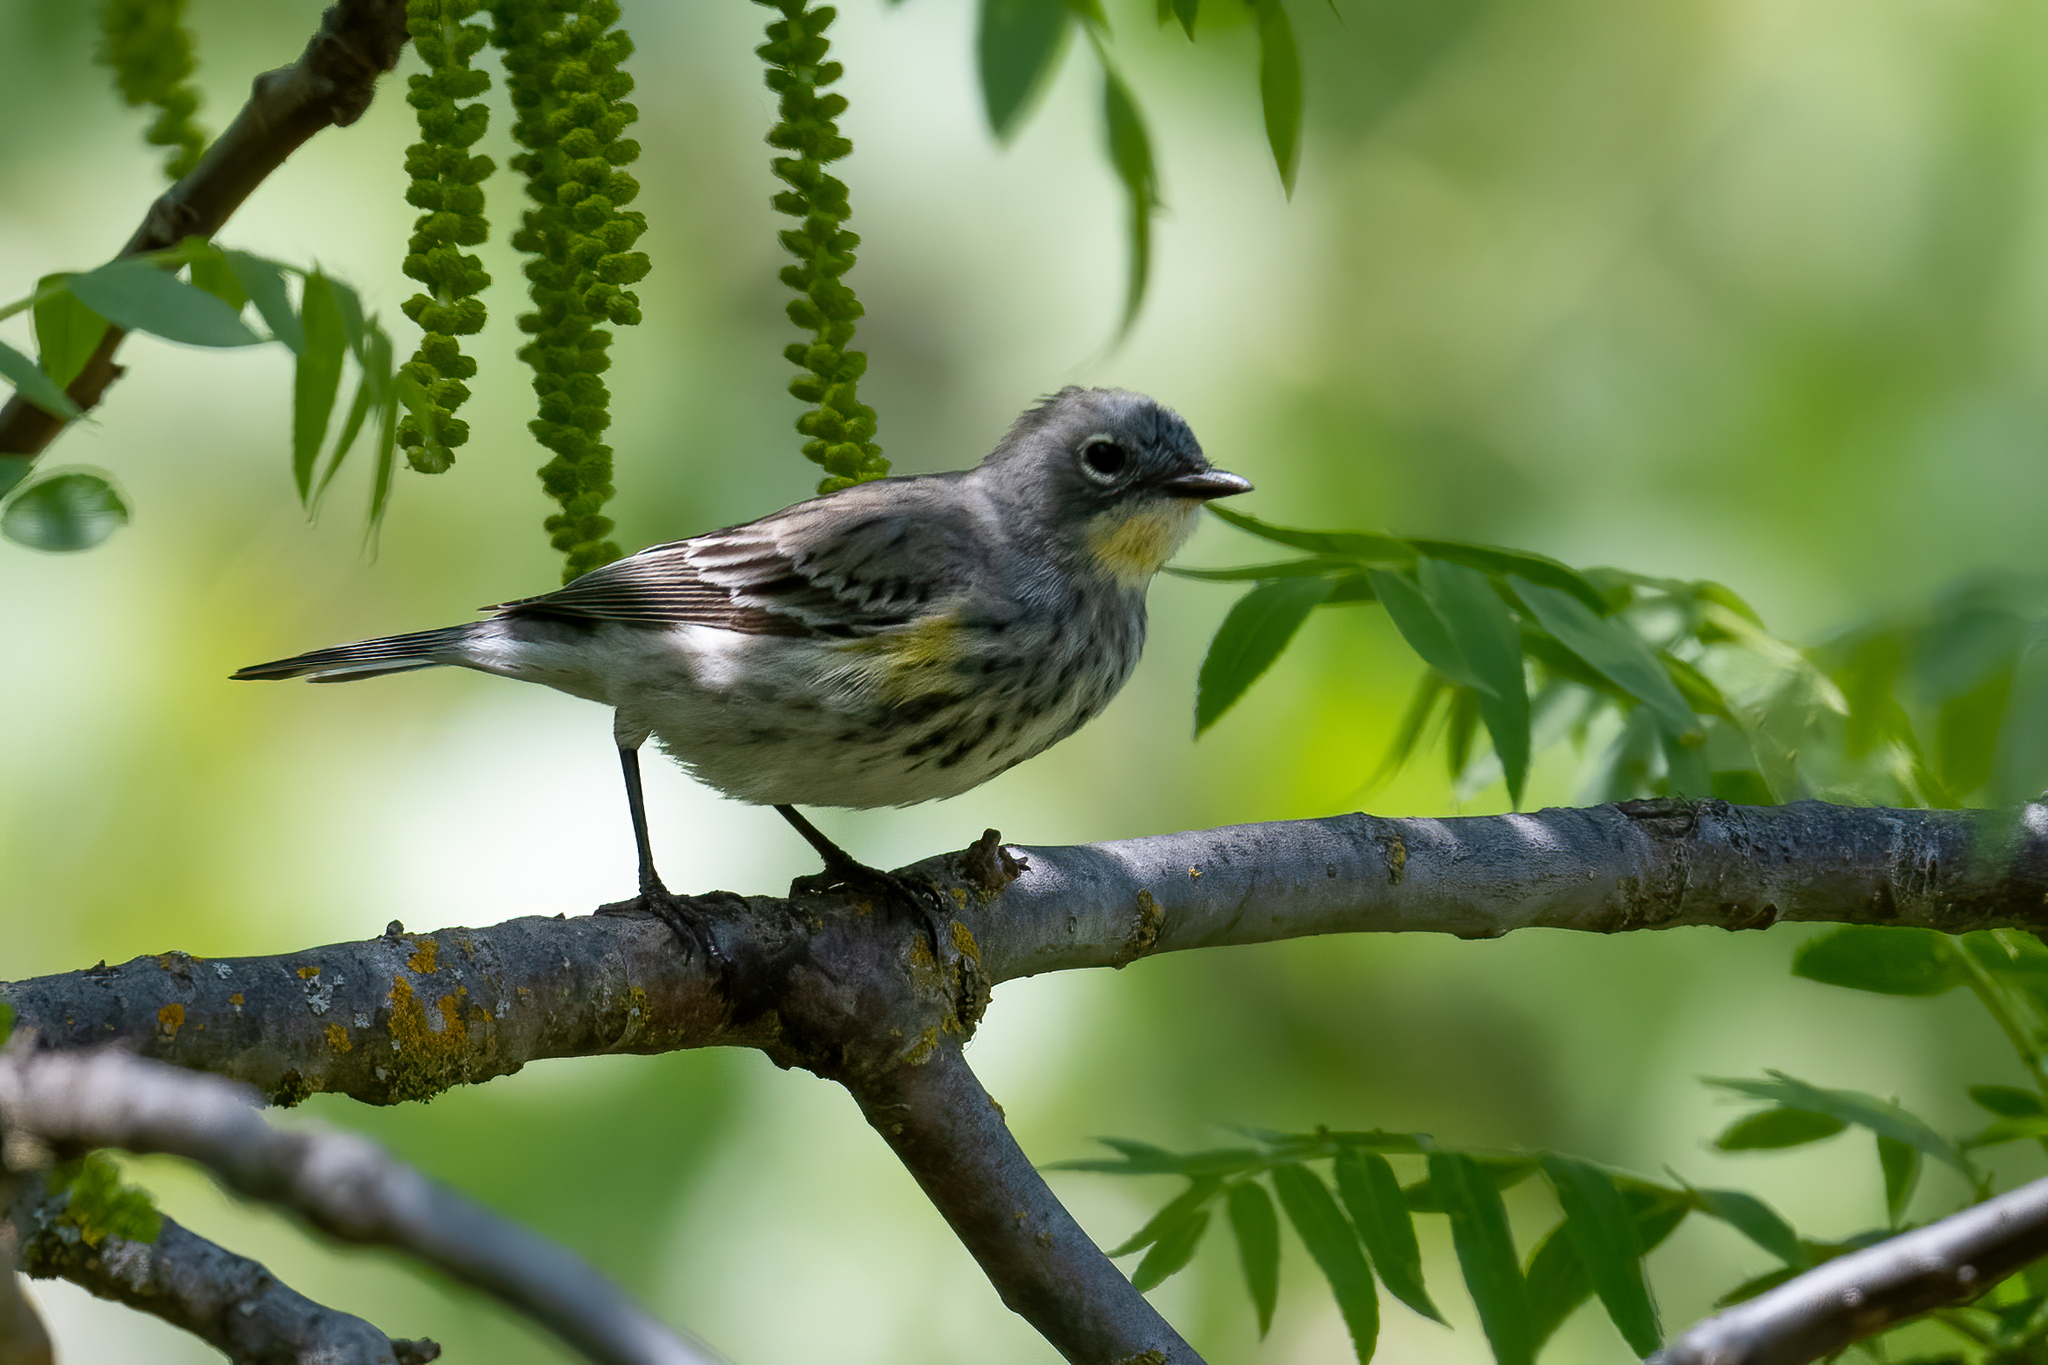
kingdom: Animalia
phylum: Chordata
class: Aves
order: Passeriformes
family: Parulidae
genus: Setophaga
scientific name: Setophaga coronata
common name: Myrtle warbler
